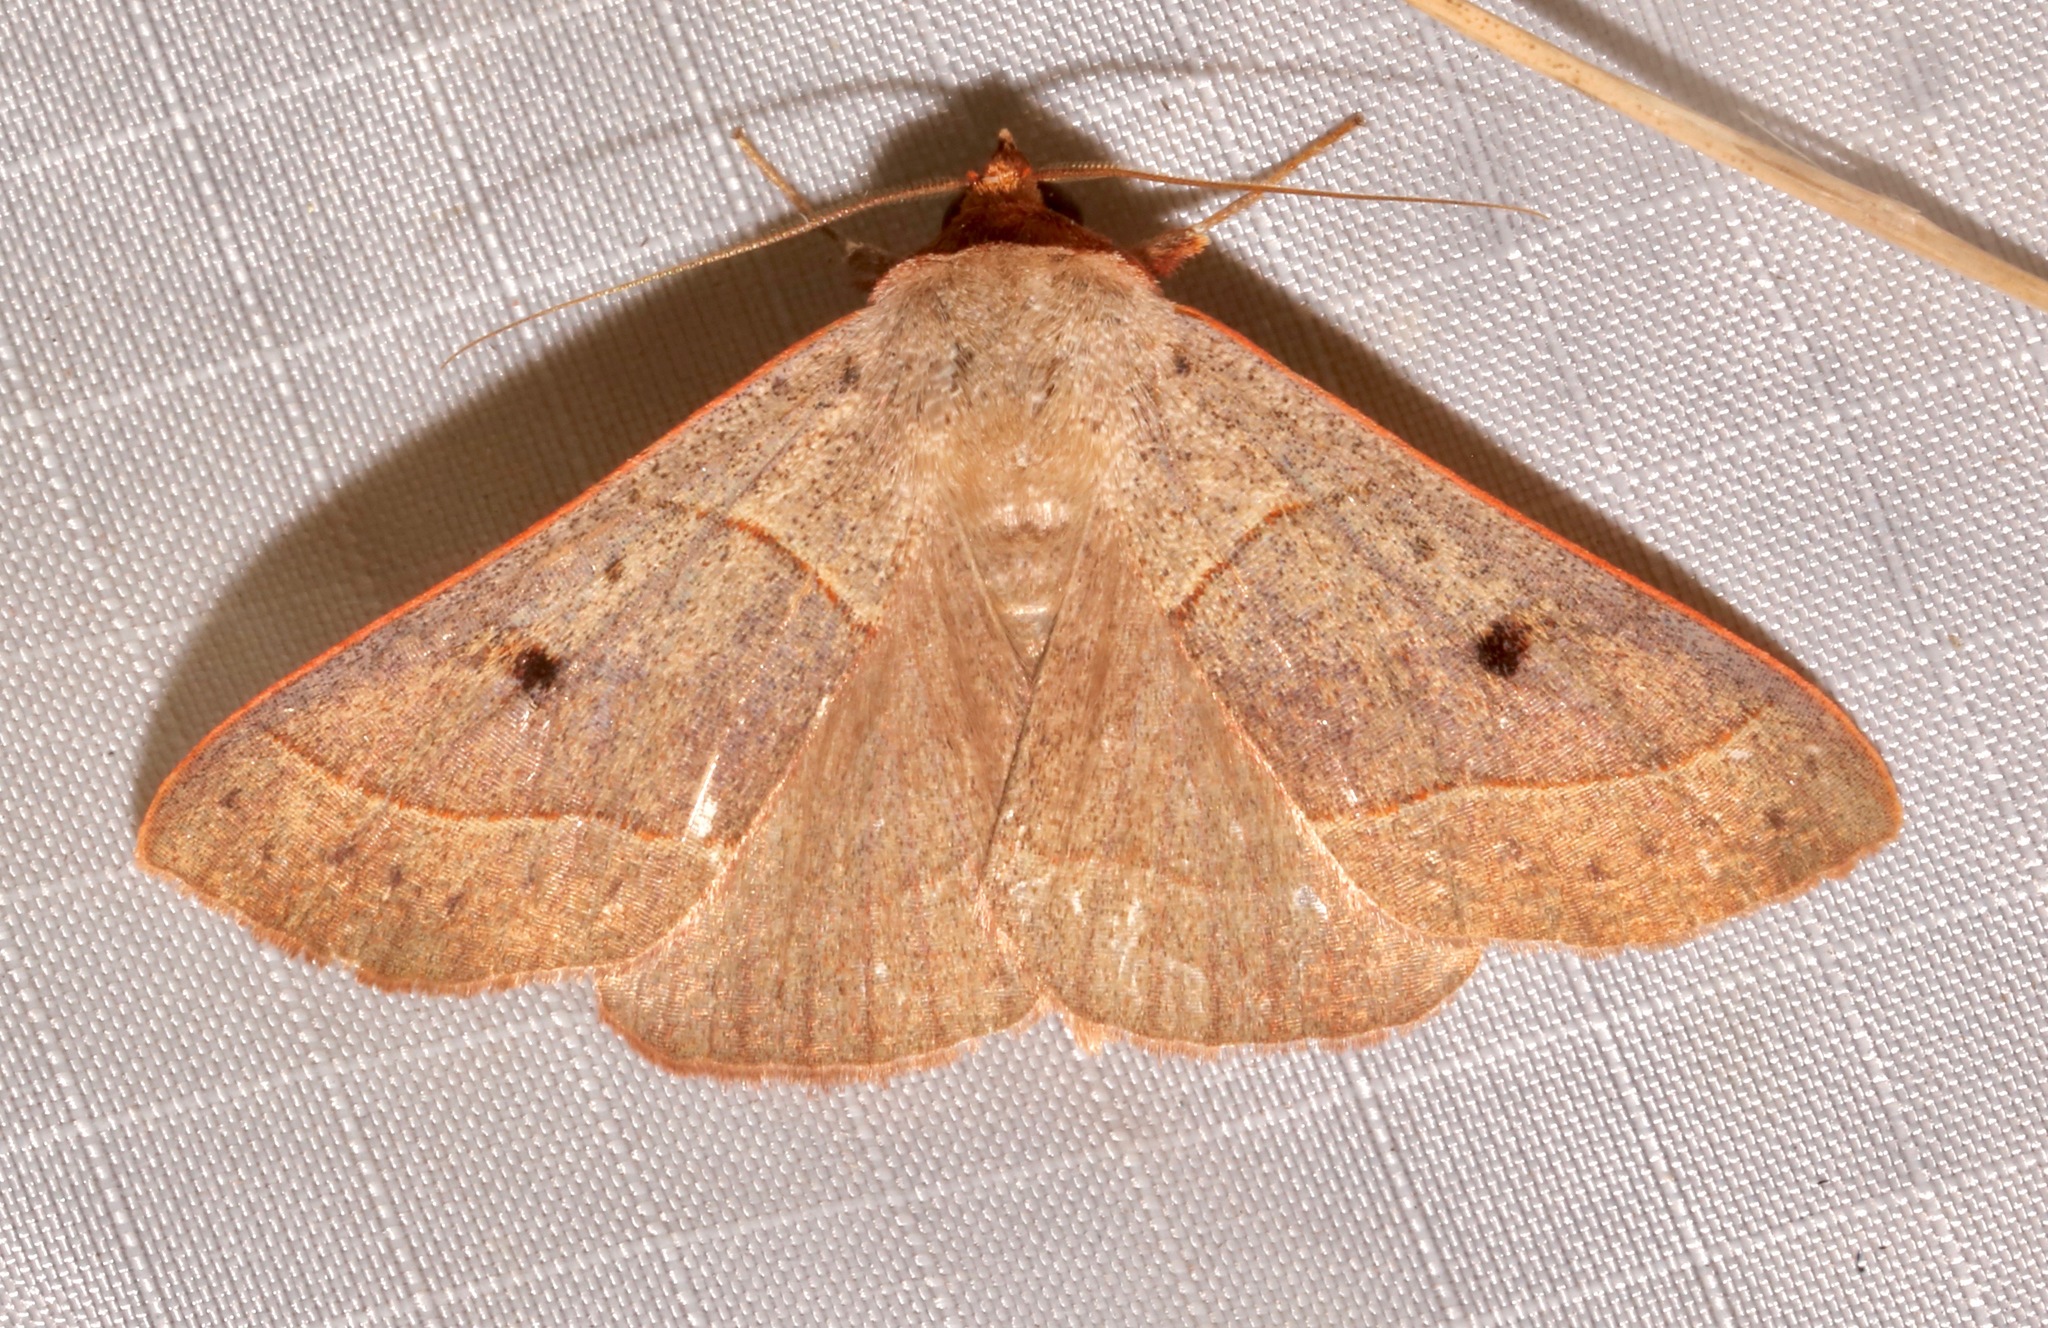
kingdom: Animalia
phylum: Arthropoda
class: Insecta
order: Lepidoptera
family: Erebidae
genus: Panopoda
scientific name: Panopoda rufimargo
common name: Red-lined panopoda moth
